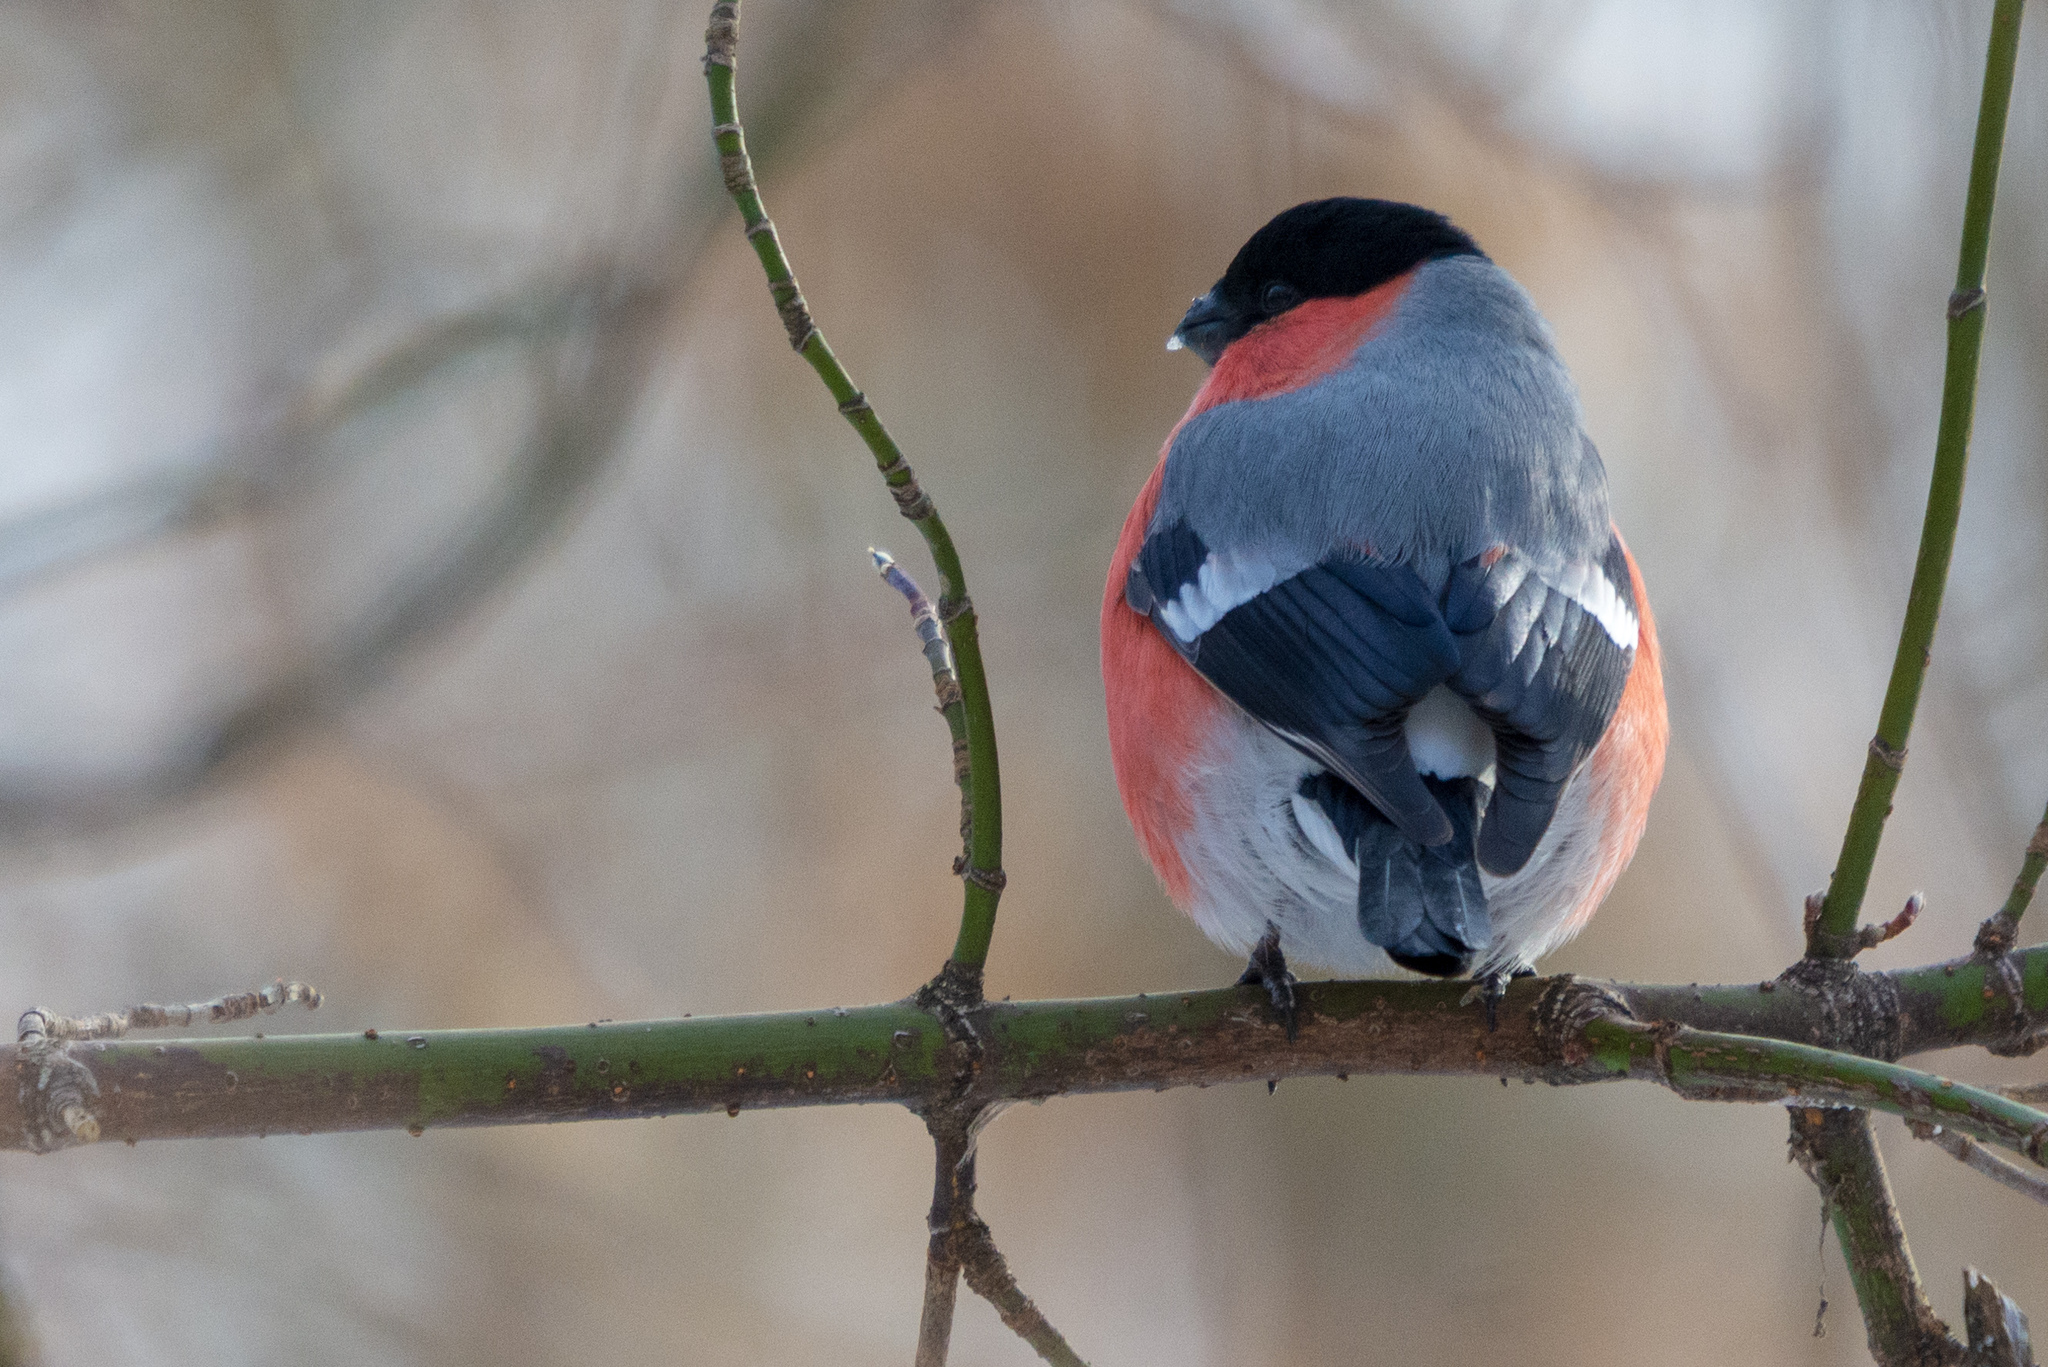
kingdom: Animalia
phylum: Chordata
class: Aves
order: Passeriformes
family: Fringillidae
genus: Pyrrhula
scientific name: Pyrrhula pyrrhula
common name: Eurasian bullfinch
